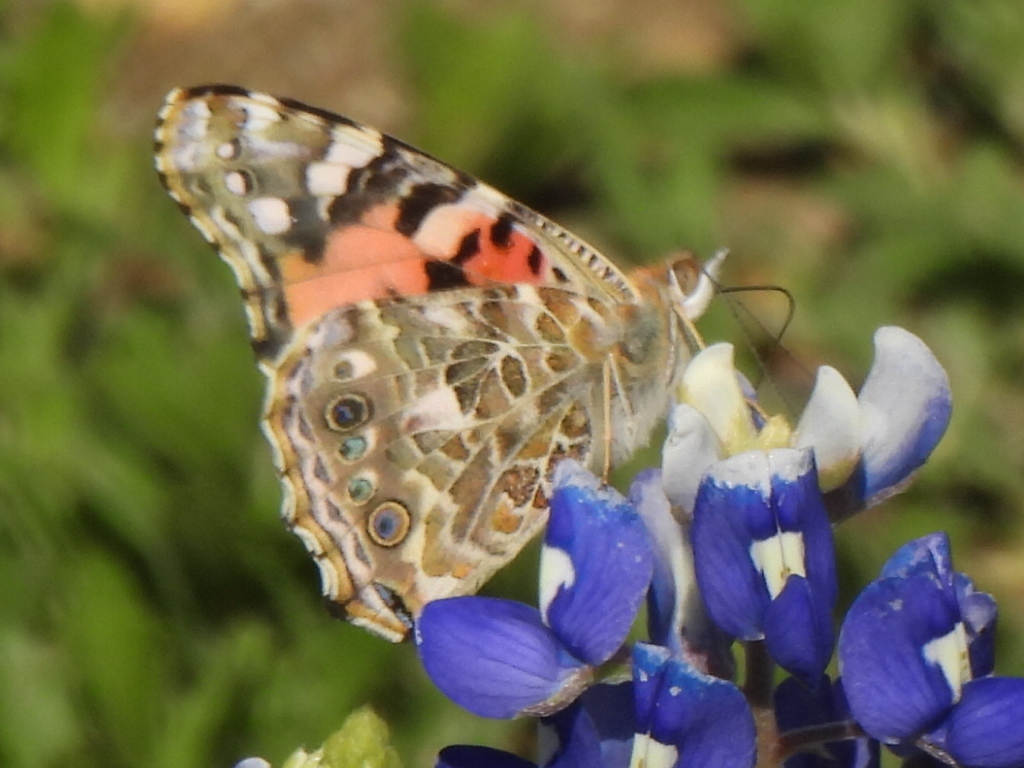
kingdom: Animalia
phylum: Arthropoda
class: Insecta
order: Lepidoptera
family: Nymphalidae
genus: Vanessa
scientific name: Vanessa cardui
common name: Painted lady
